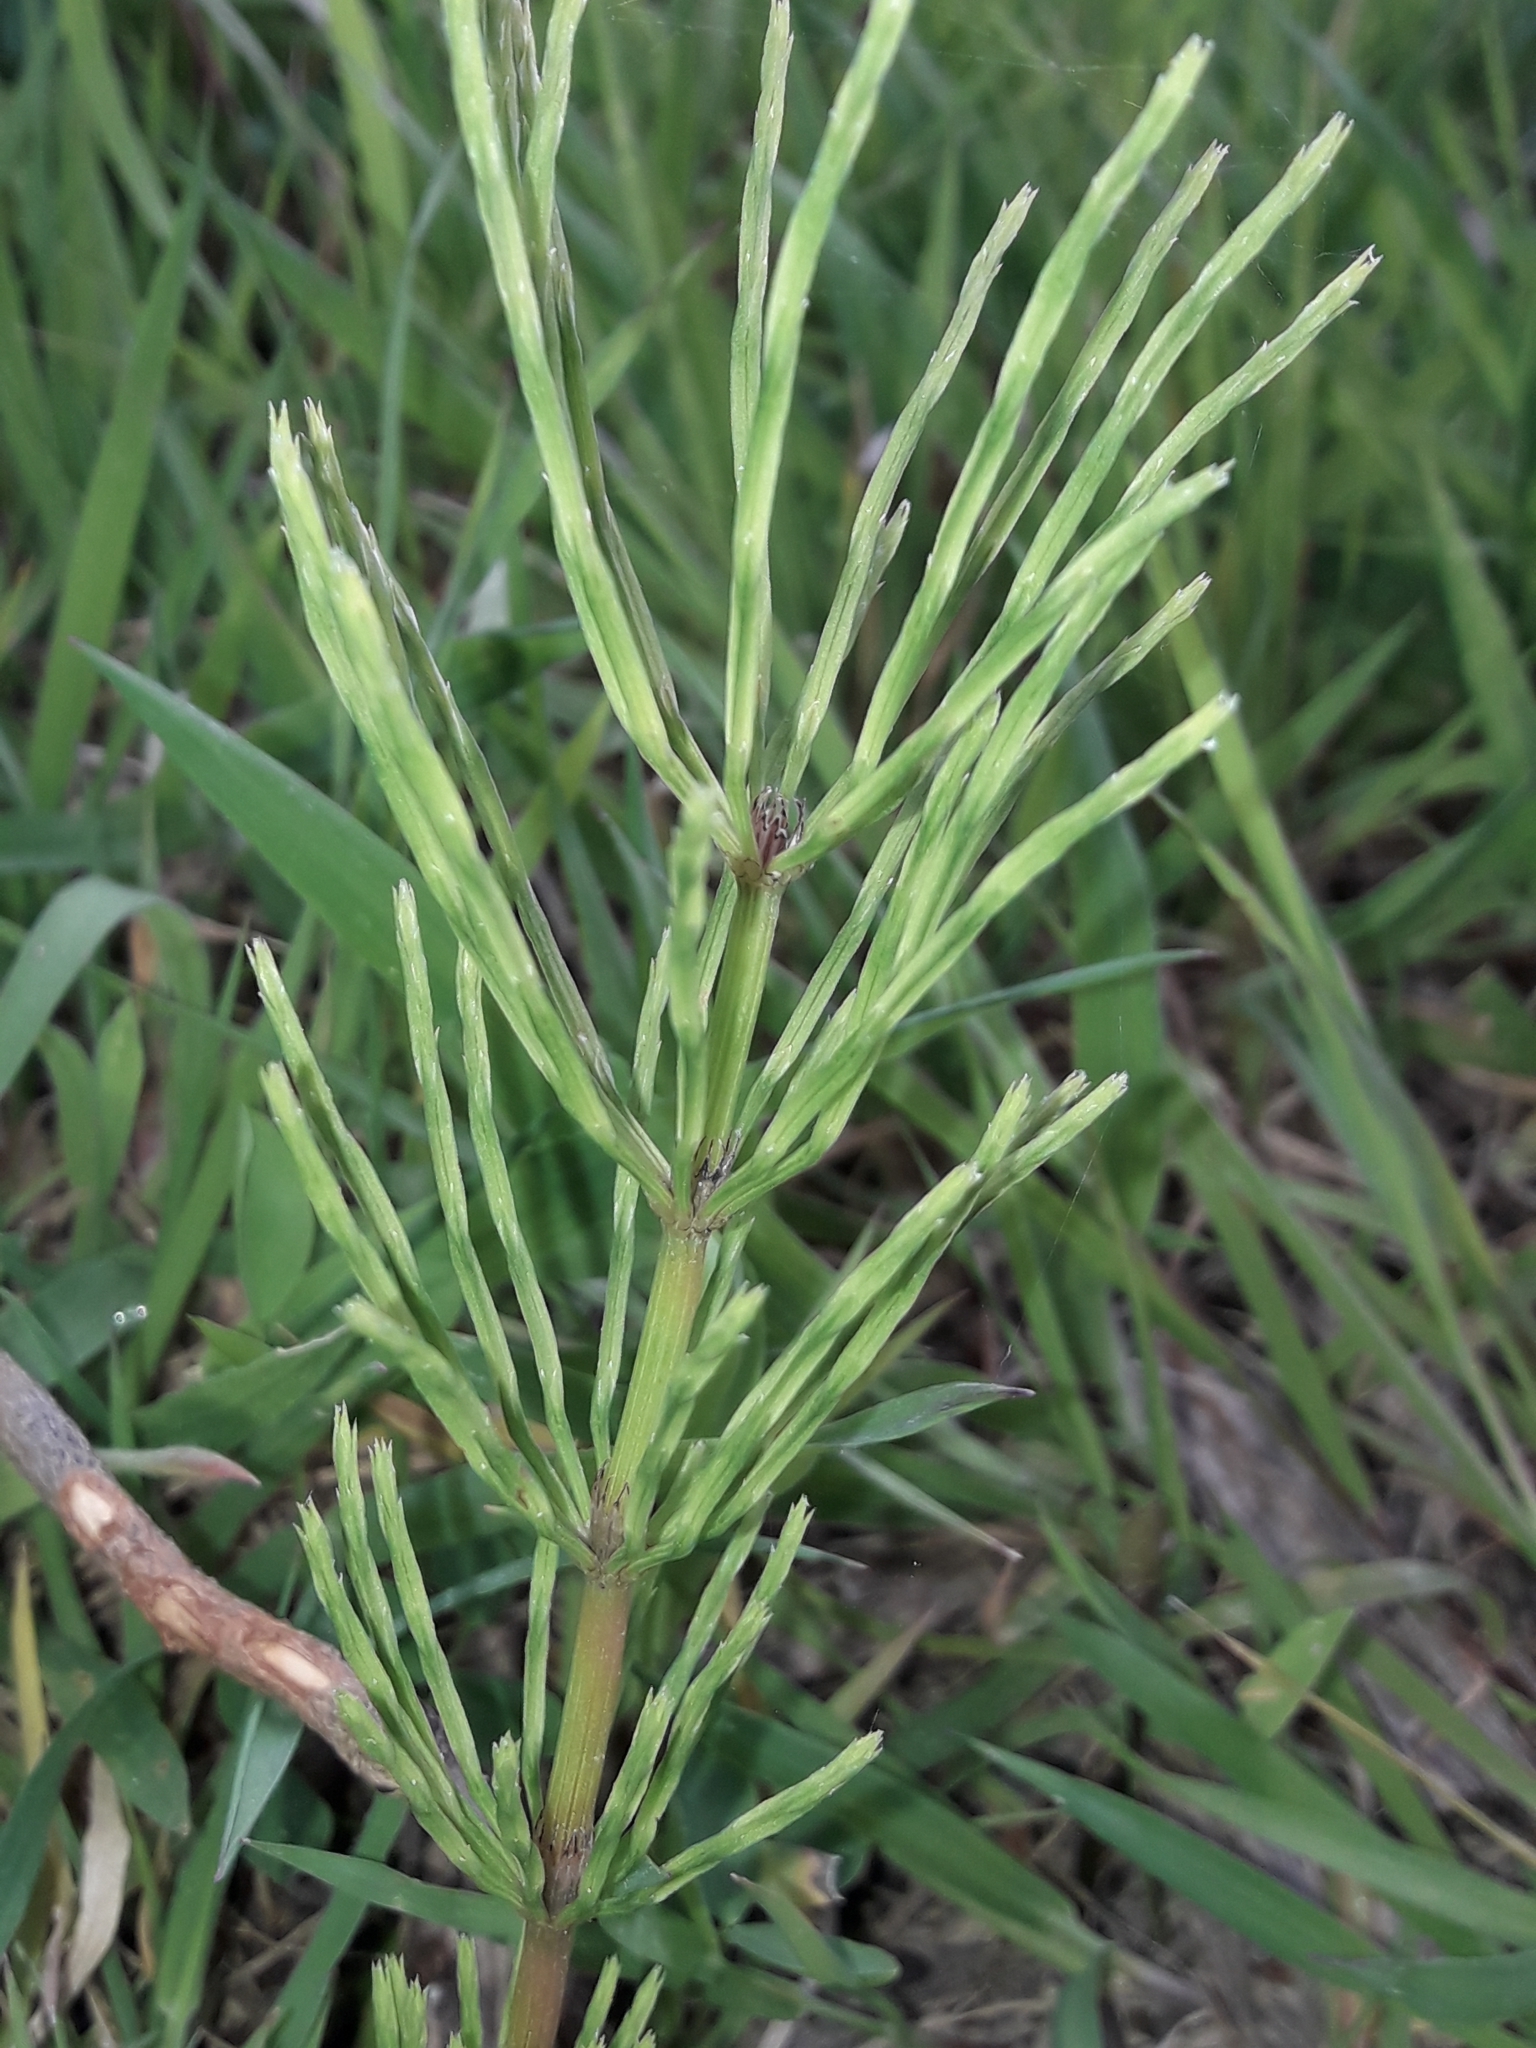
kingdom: Plantae
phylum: Tracheophyta
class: Polypodiopsida
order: Equisetales
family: Equisetaceae
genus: Equisetum
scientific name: Equisetum arvense
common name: Field horsetail
